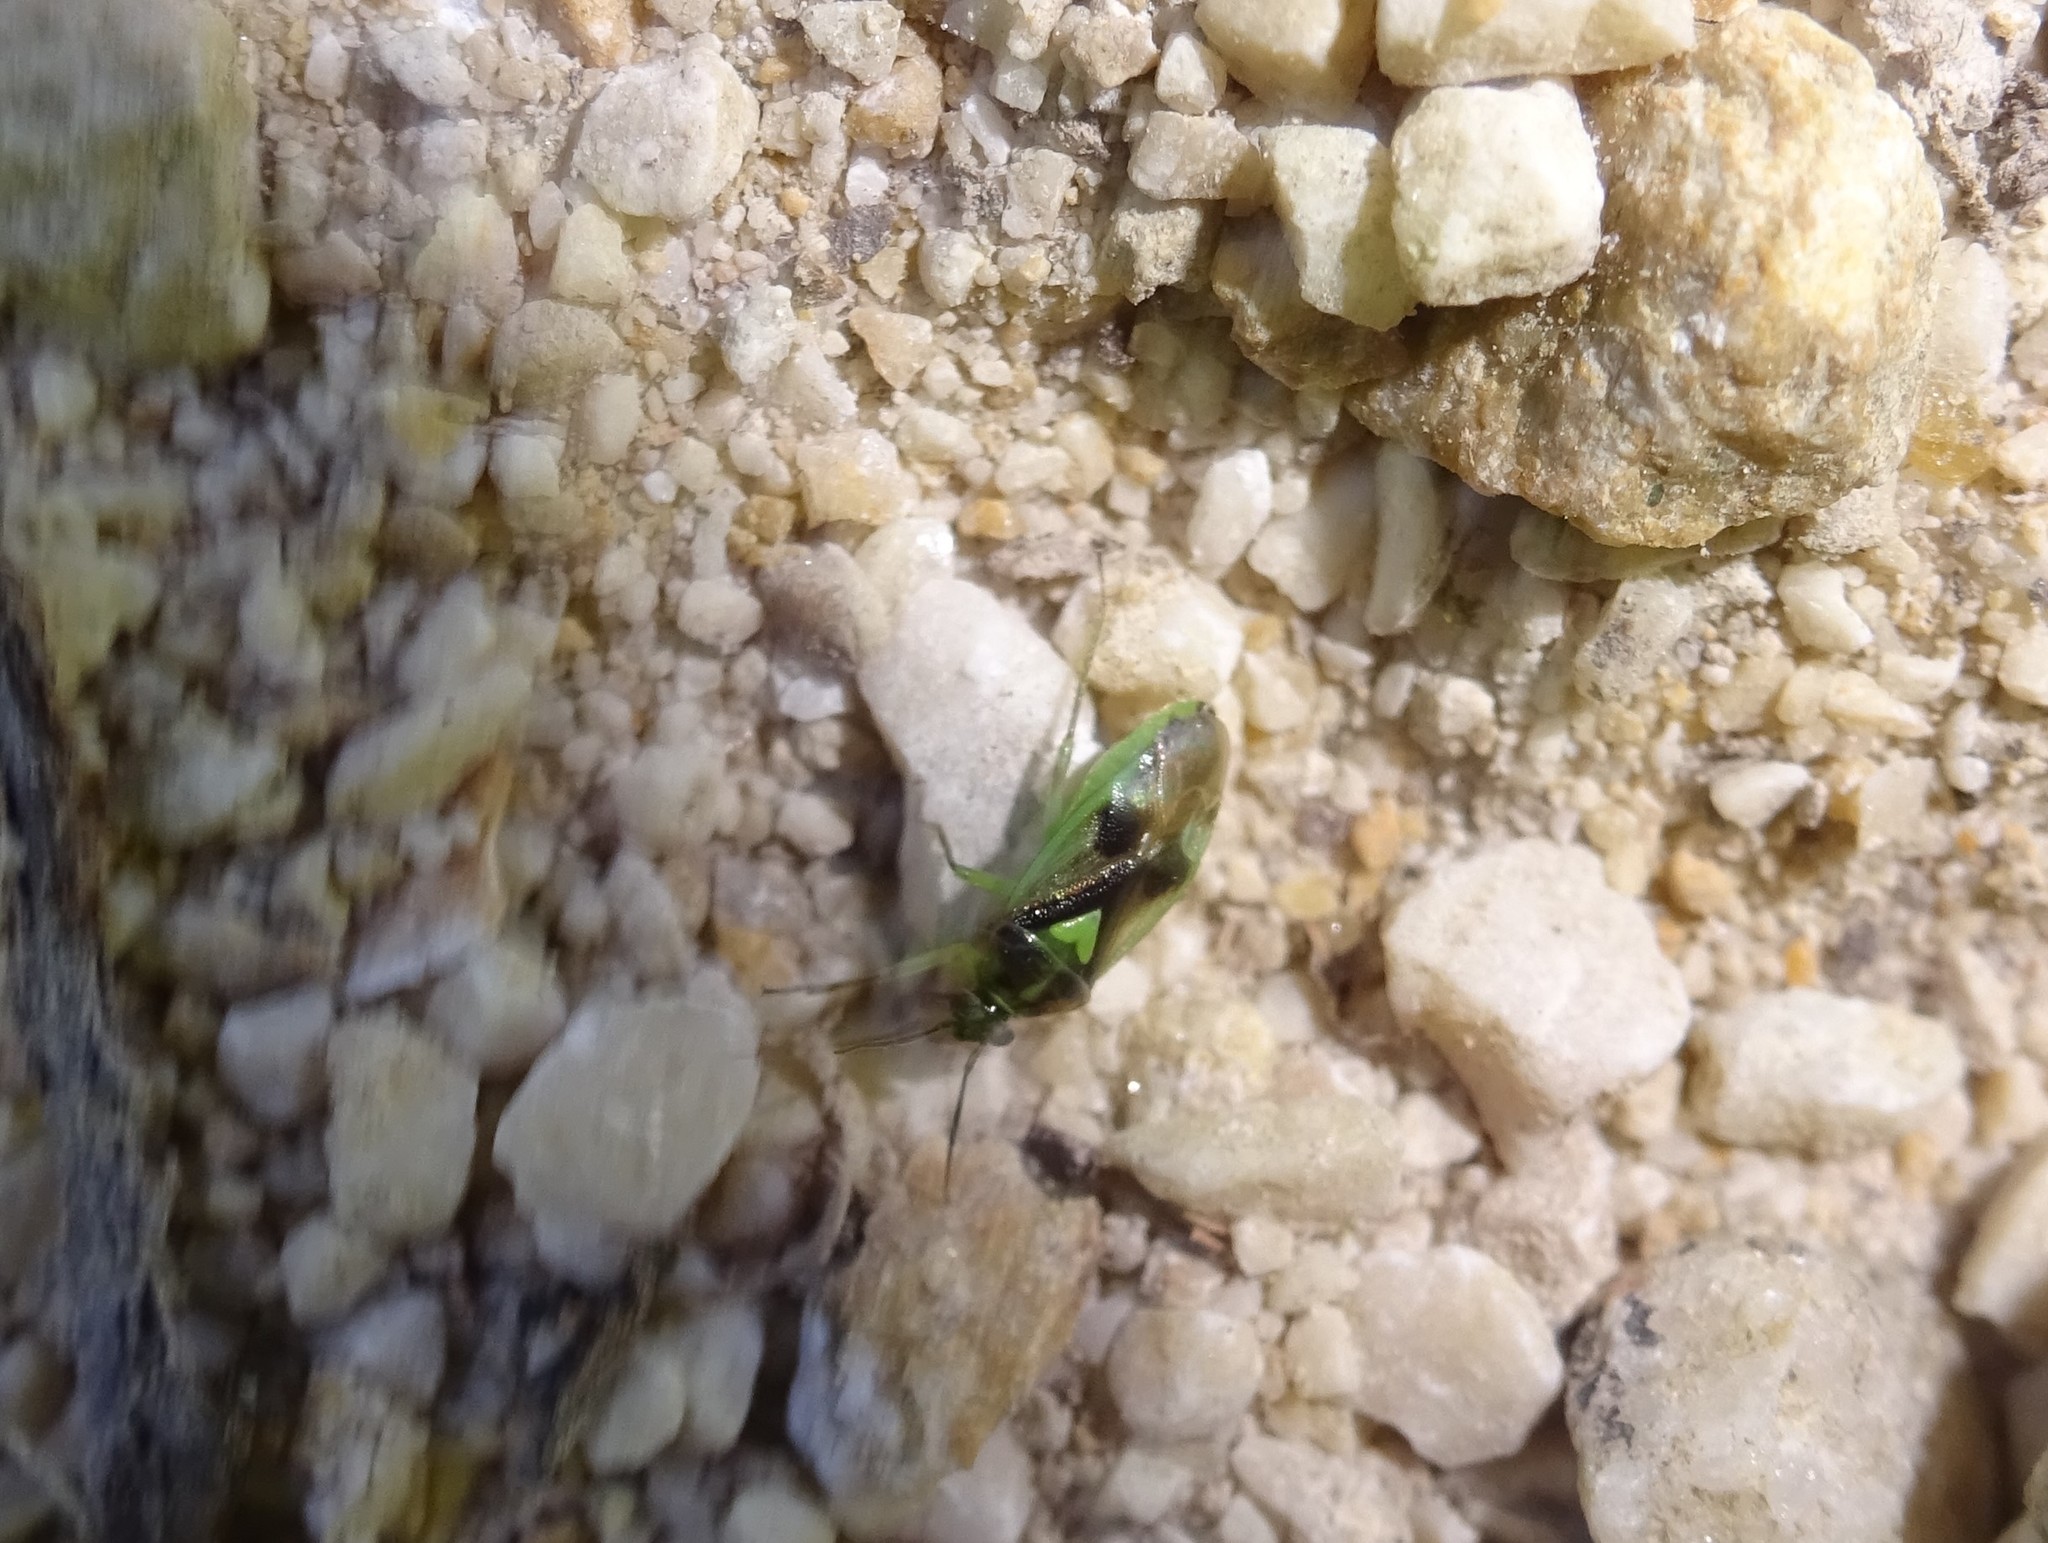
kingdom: Animalia
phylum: Arthropoda
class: Insecta
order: Hemiptera
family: Miridae
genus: Orthops
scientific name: Orthops campestris
